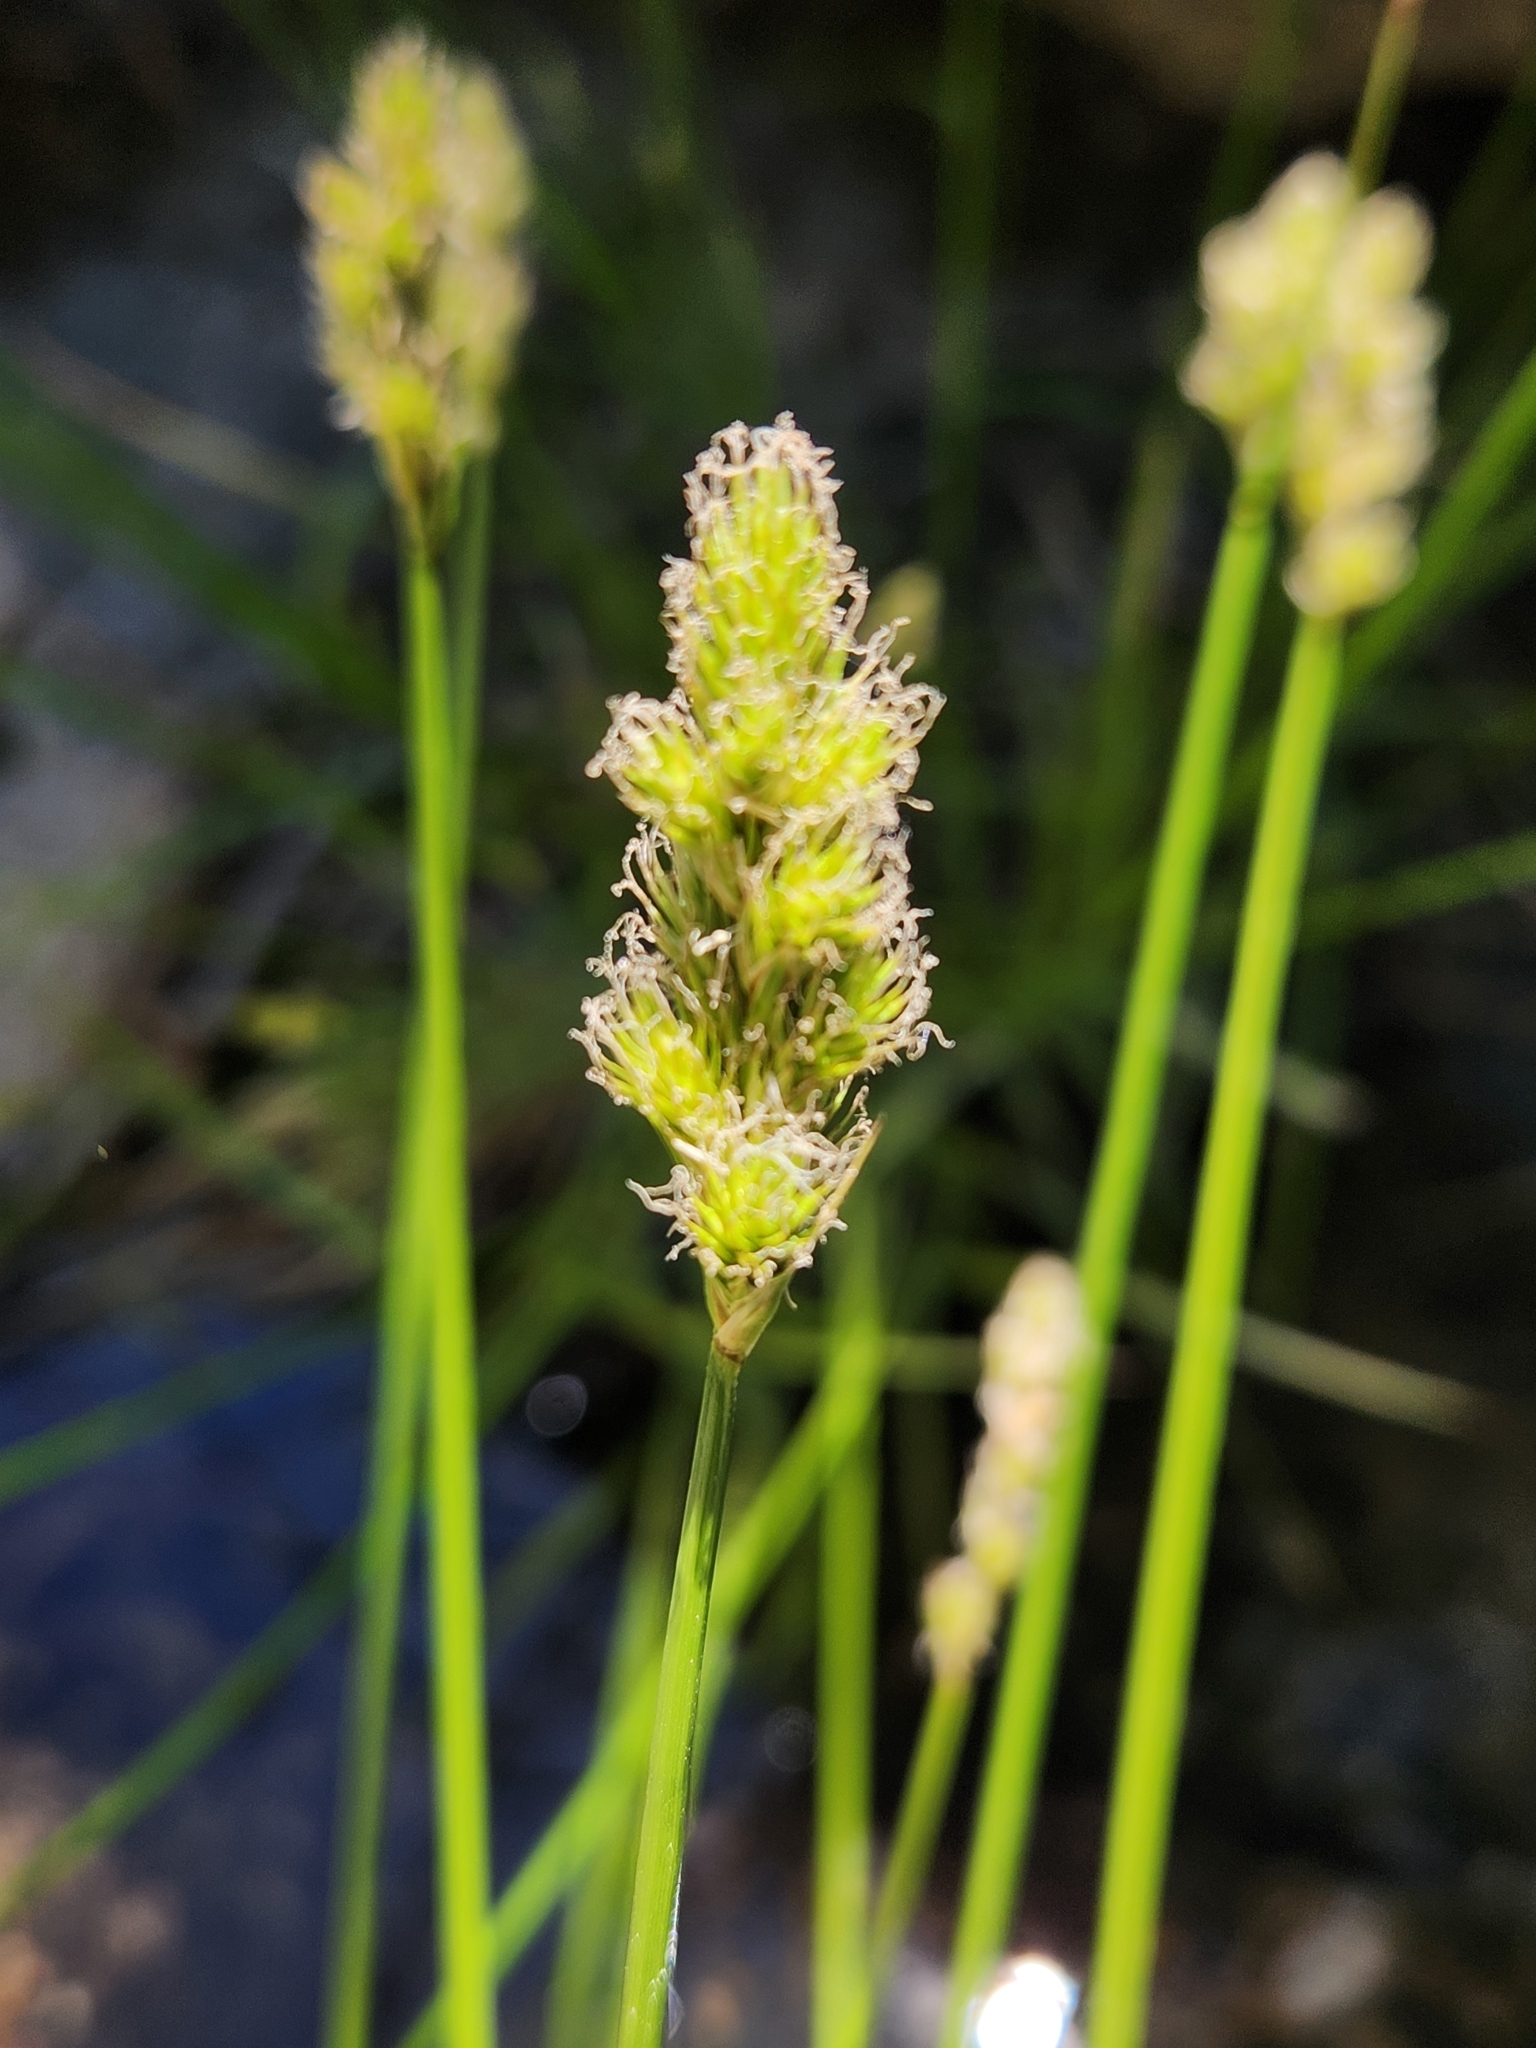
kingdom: Plantae
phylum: Tracheophyta
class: Liliopsida
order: Poales
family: Cyperaceae
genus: Carex
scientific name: Carex fracta
